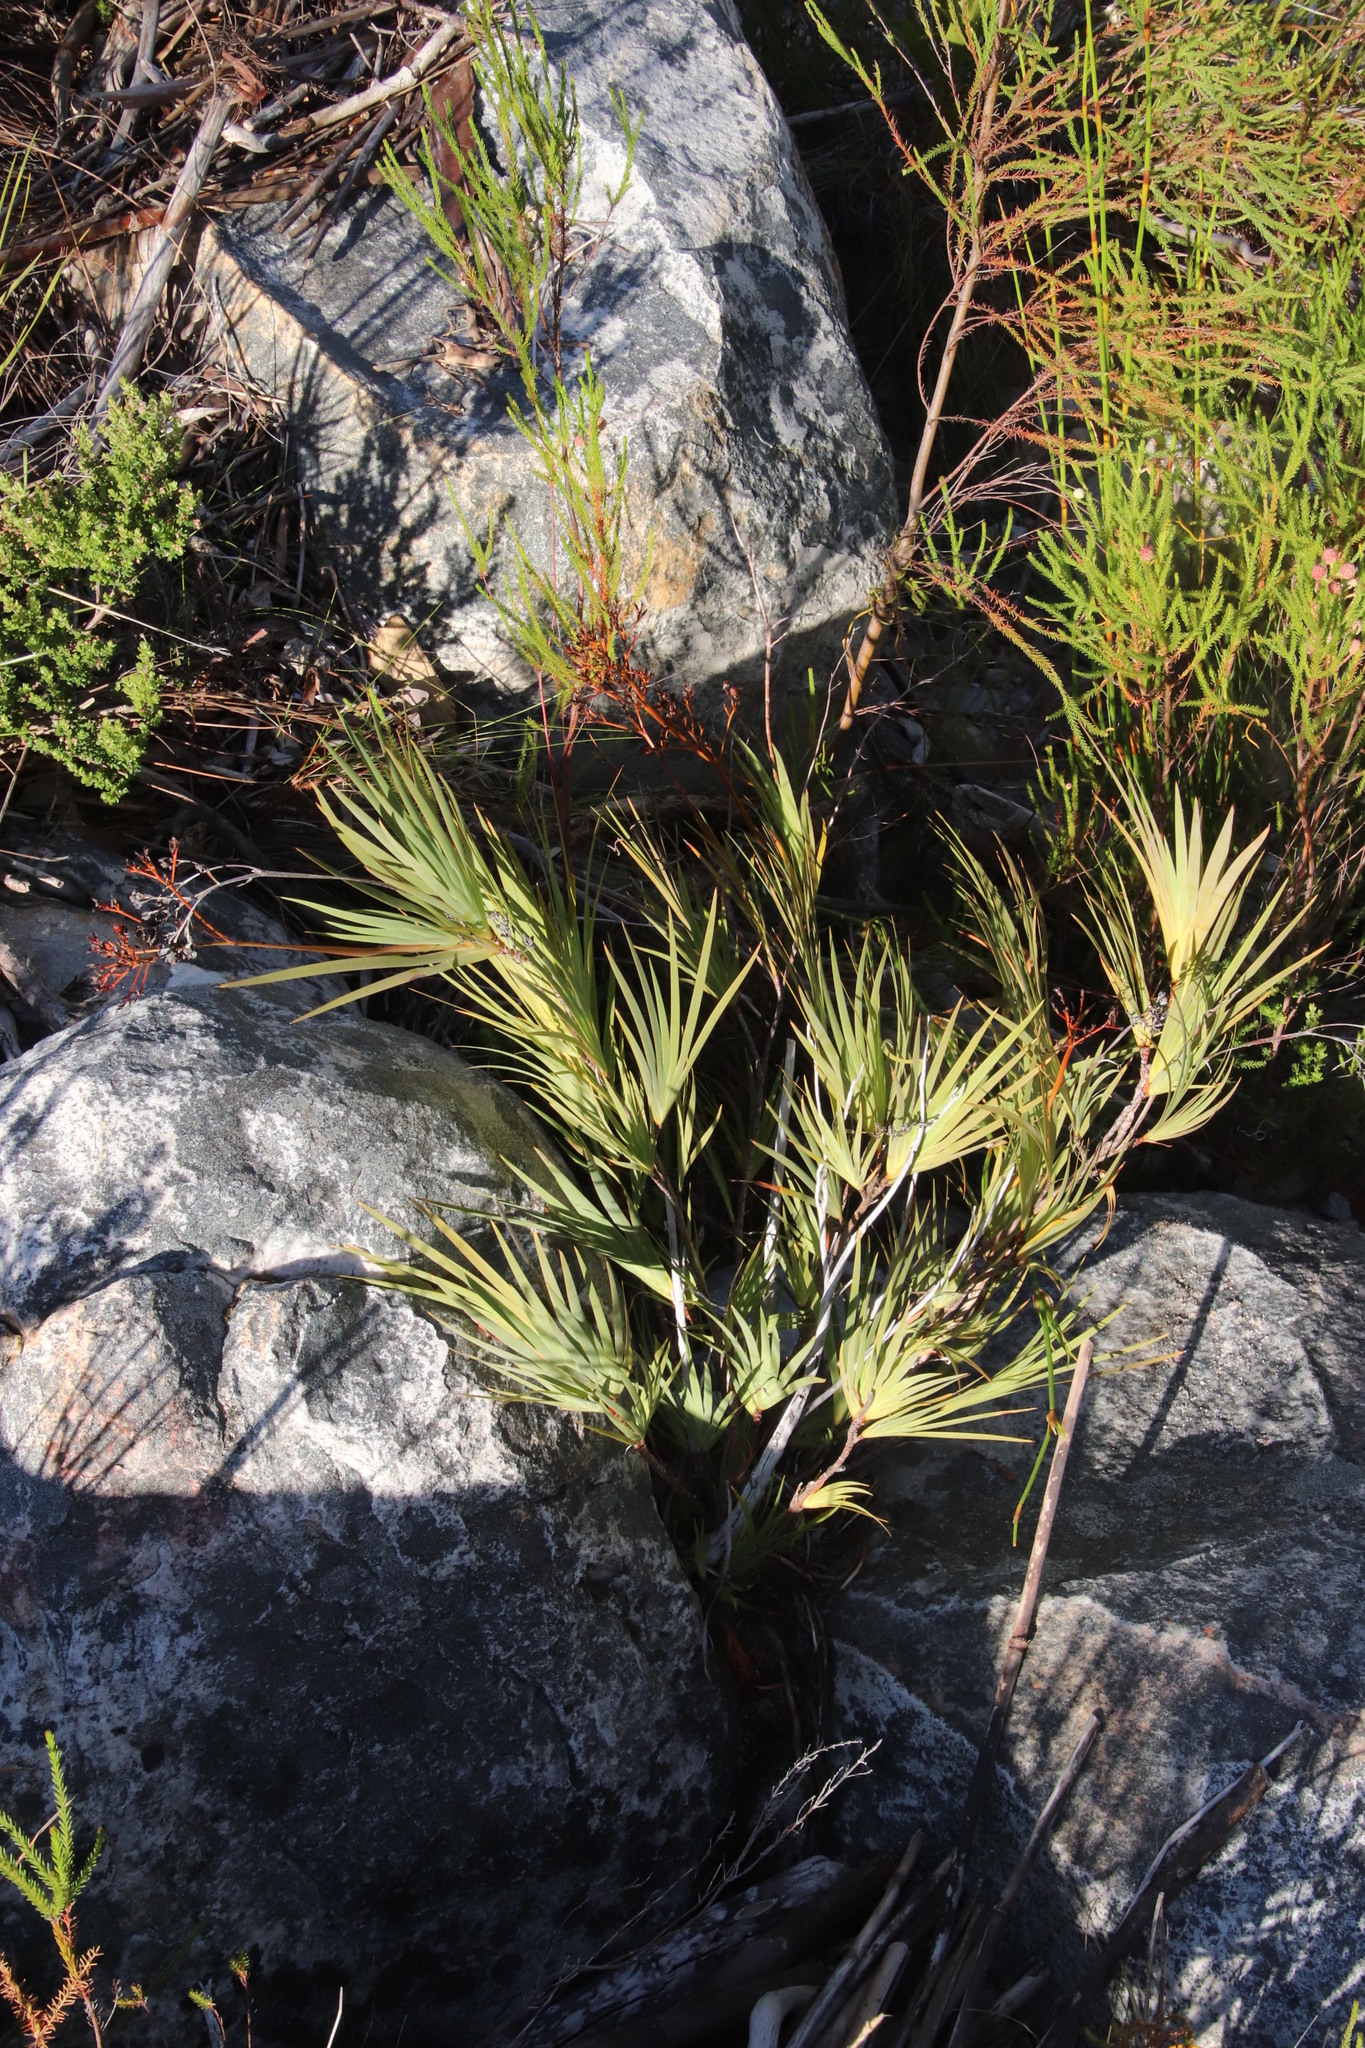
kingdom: Plantae
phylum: Tracheophyta
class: Liliopsida
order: Asparagales
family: Iridaceae
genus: Nivenia
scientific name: Nivenia corymbosa
